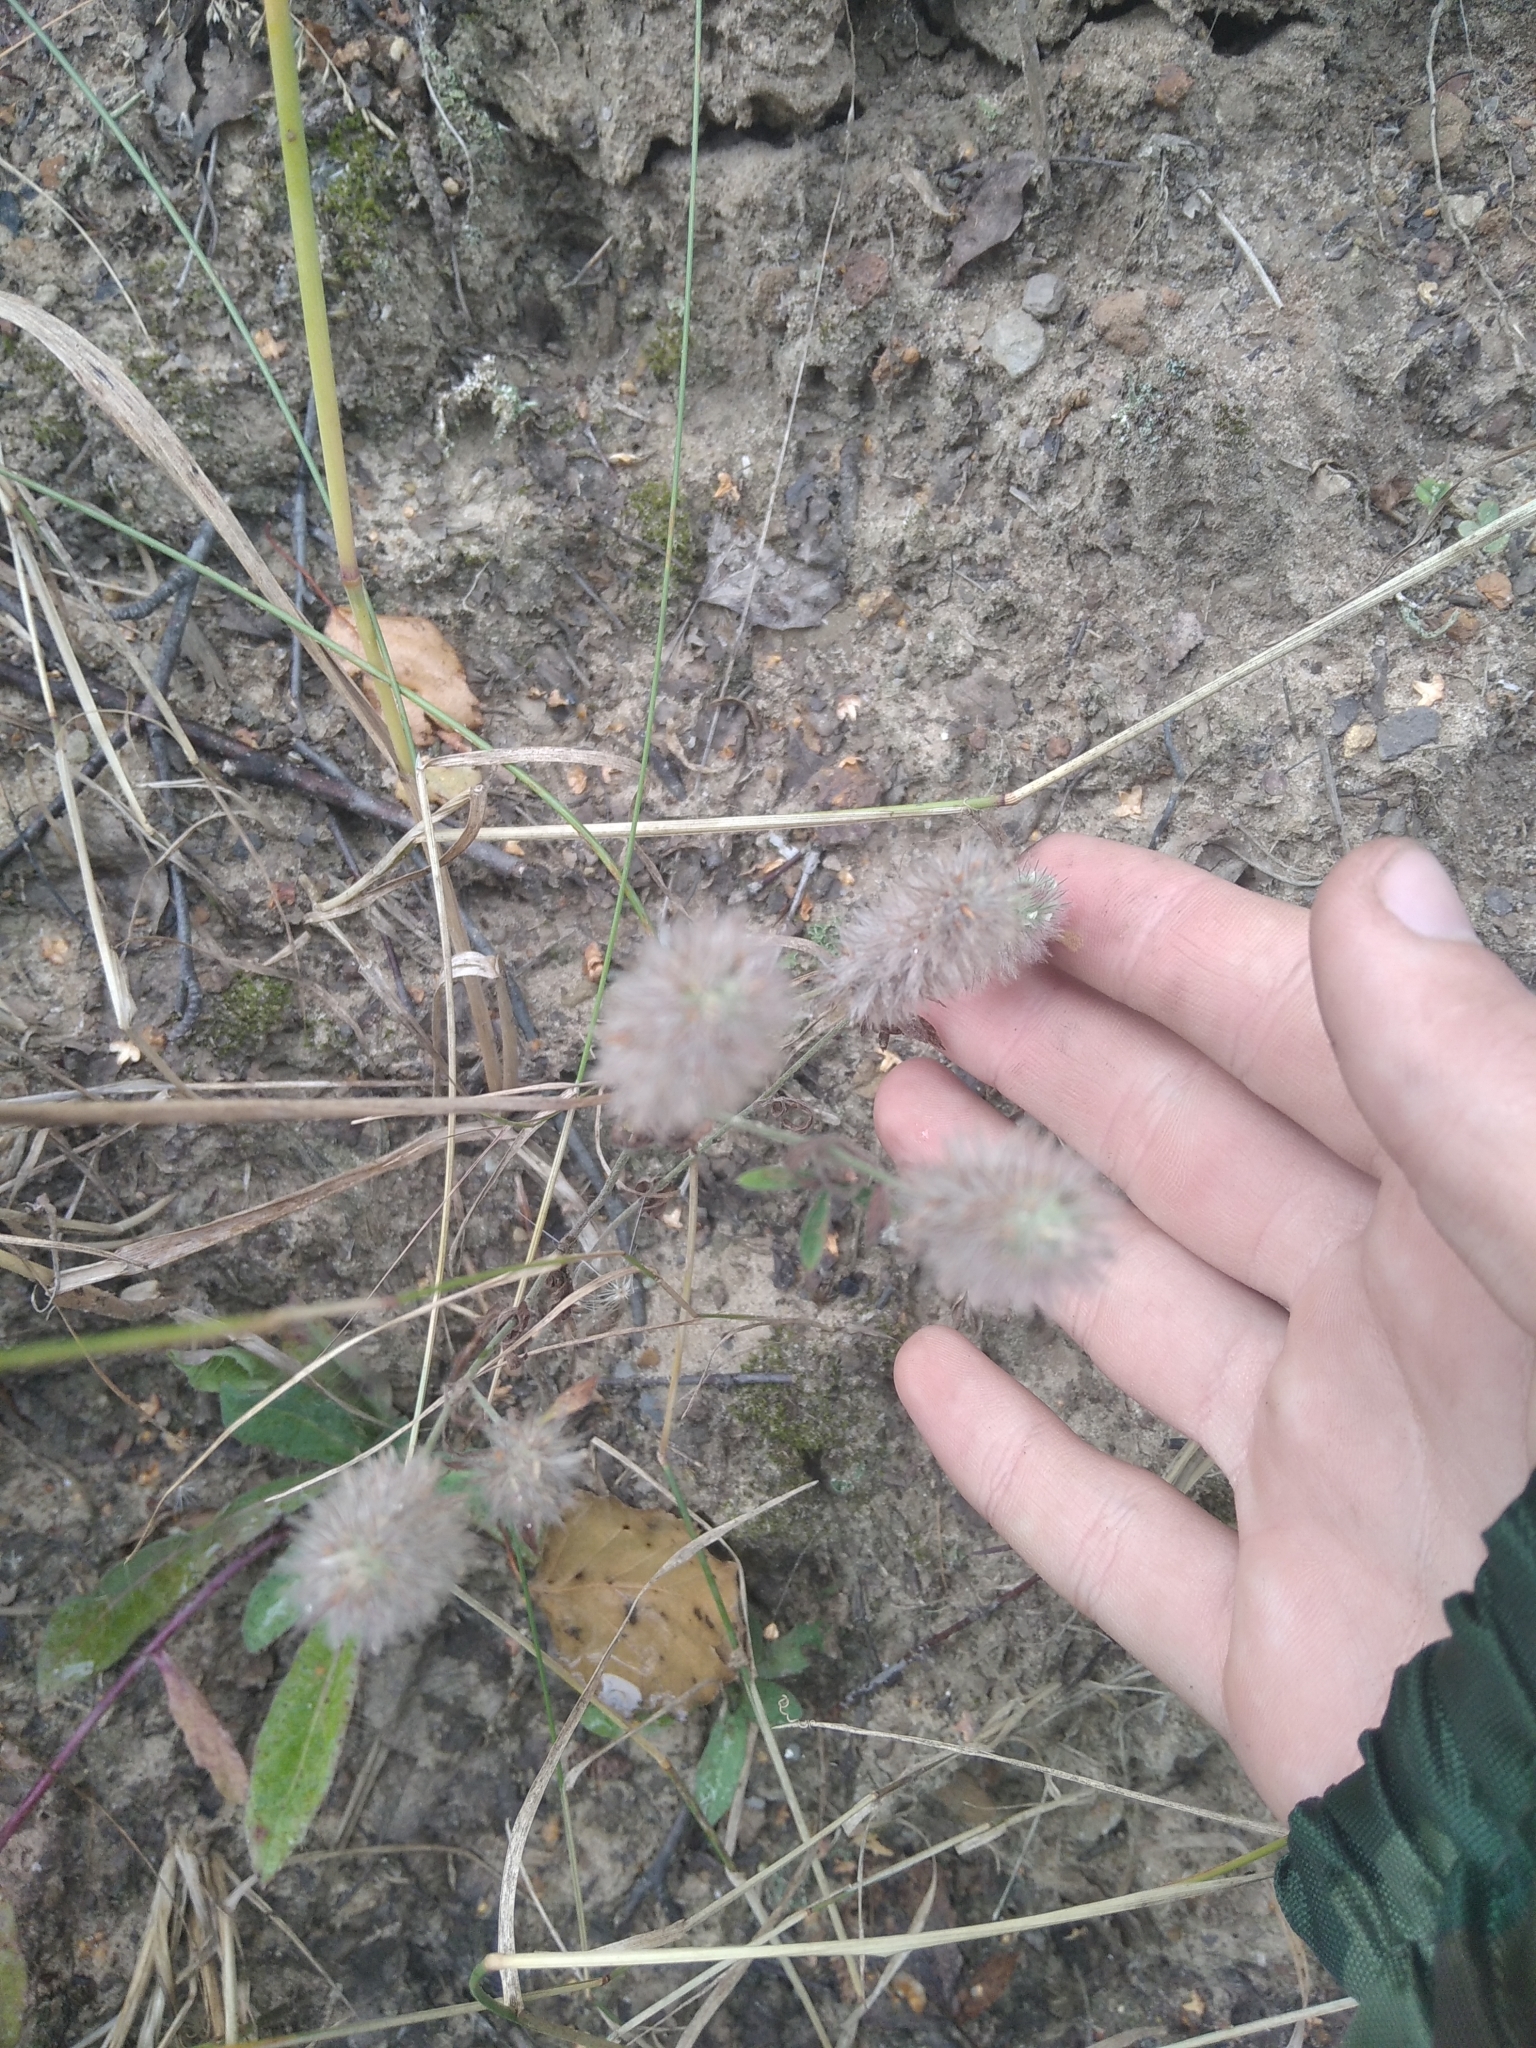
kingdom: Plantae
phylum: Tracheophyta
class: Magnoliopsida
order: Fabales
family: Fabaceae
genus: Trifolium
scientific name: Trifolium arvense
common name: Hare's-foot clover
